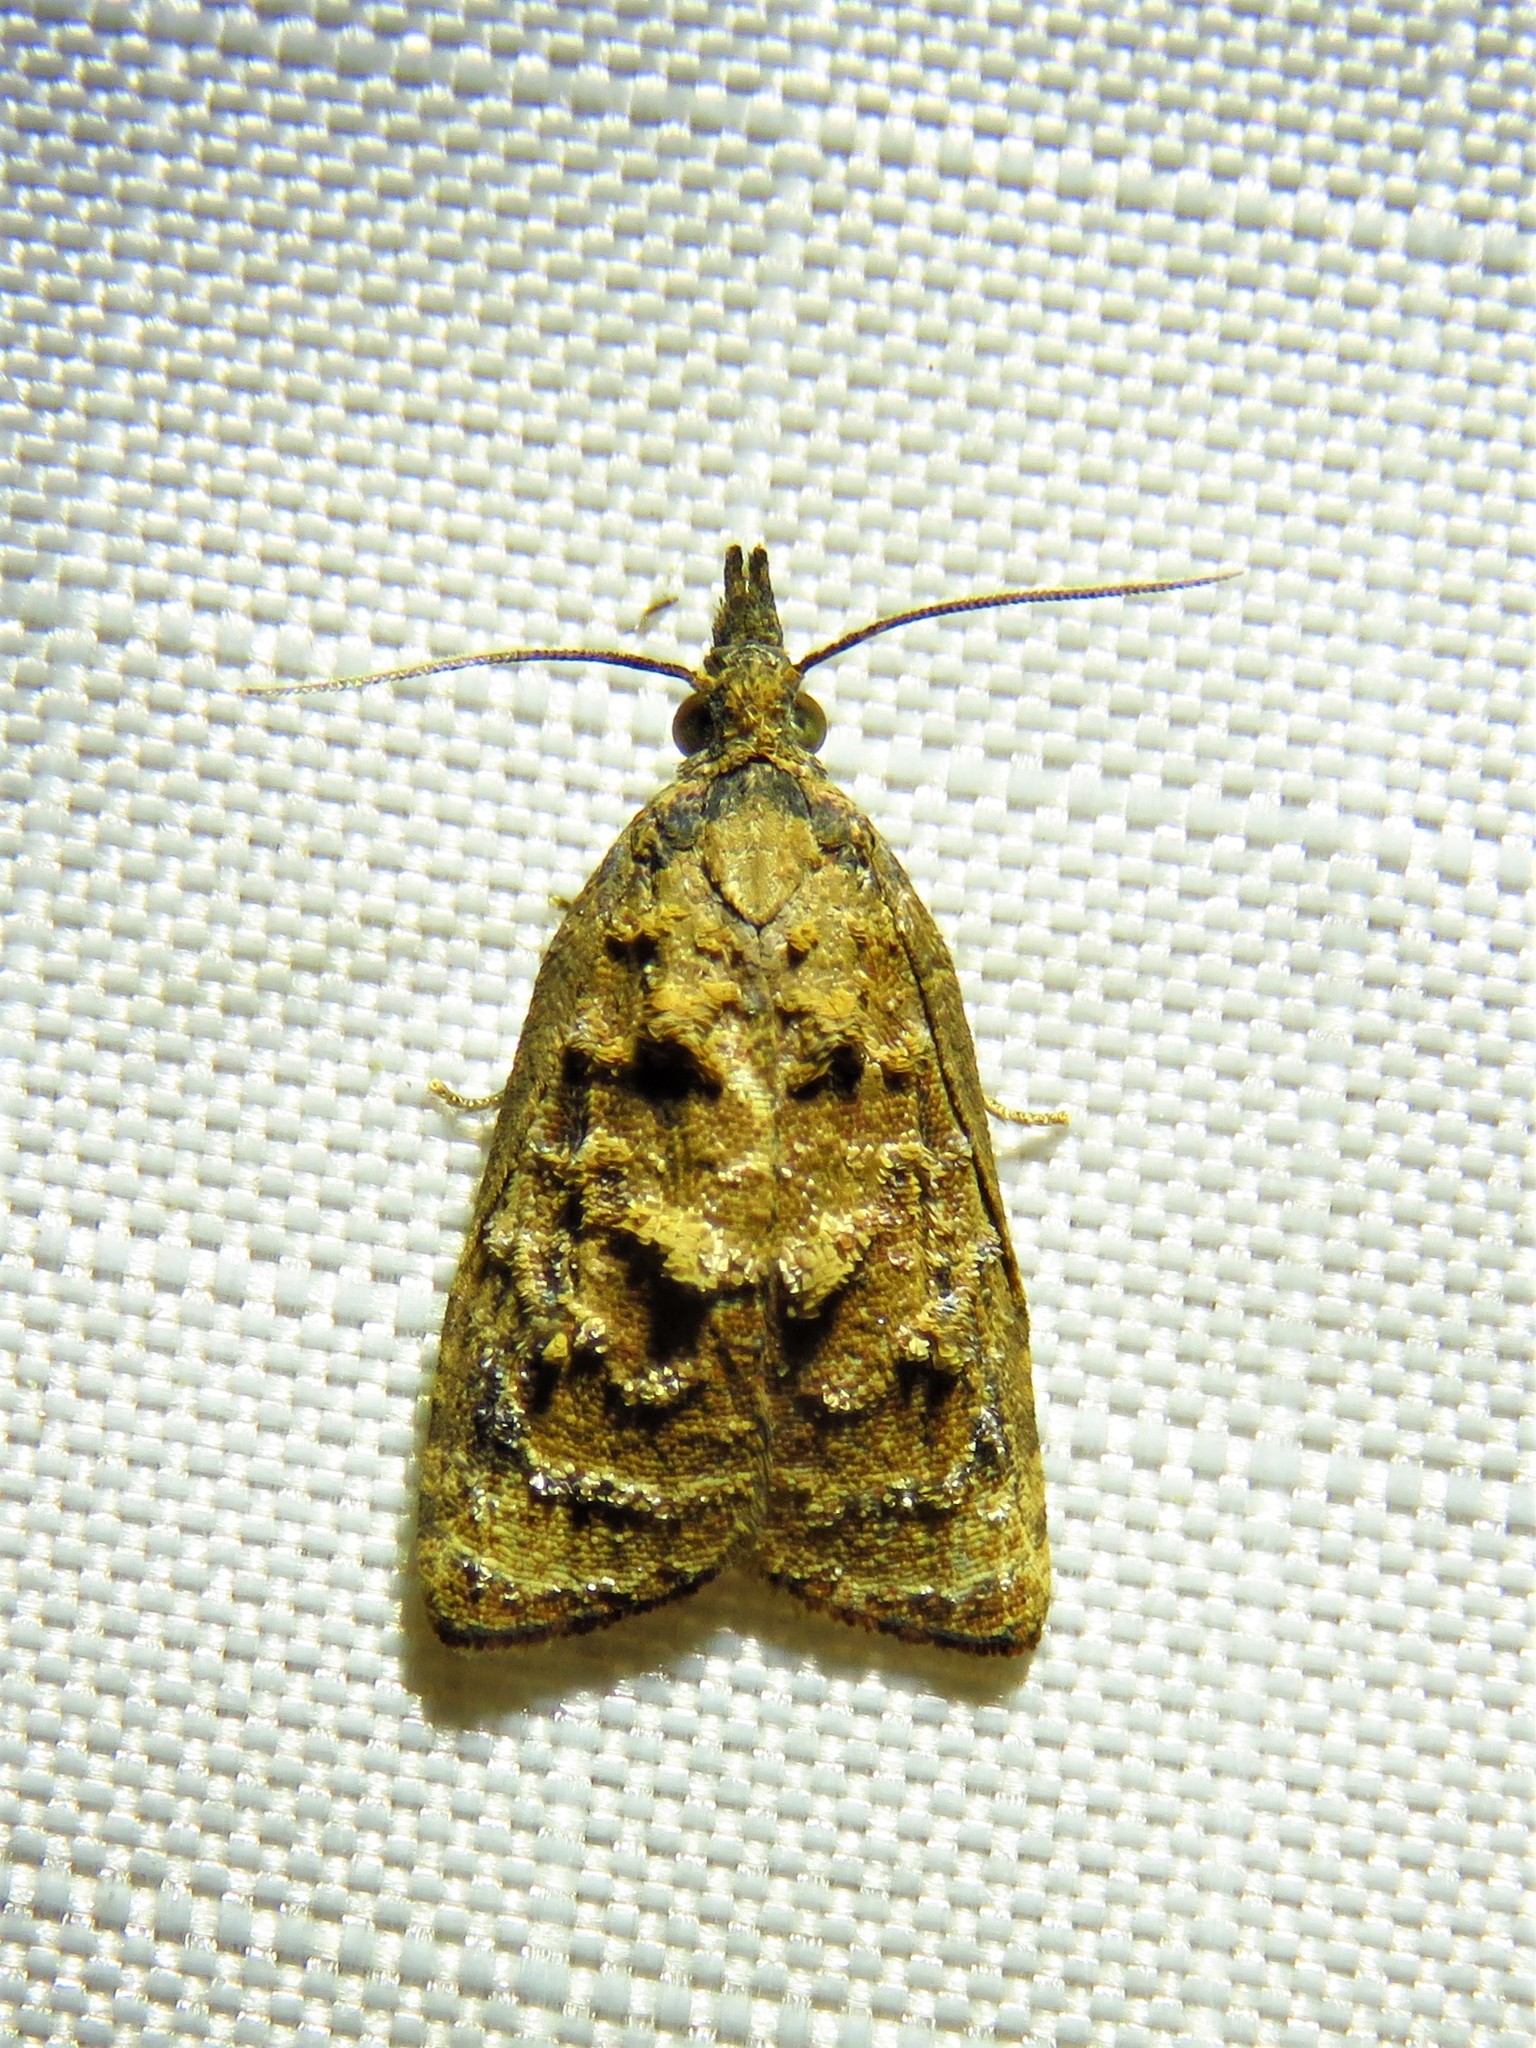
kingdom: Animalia
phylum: Arthropoda
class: Insecta
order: Lepidoptera
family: Tortricidae
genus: Platynota
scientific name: Platynota rostrana
